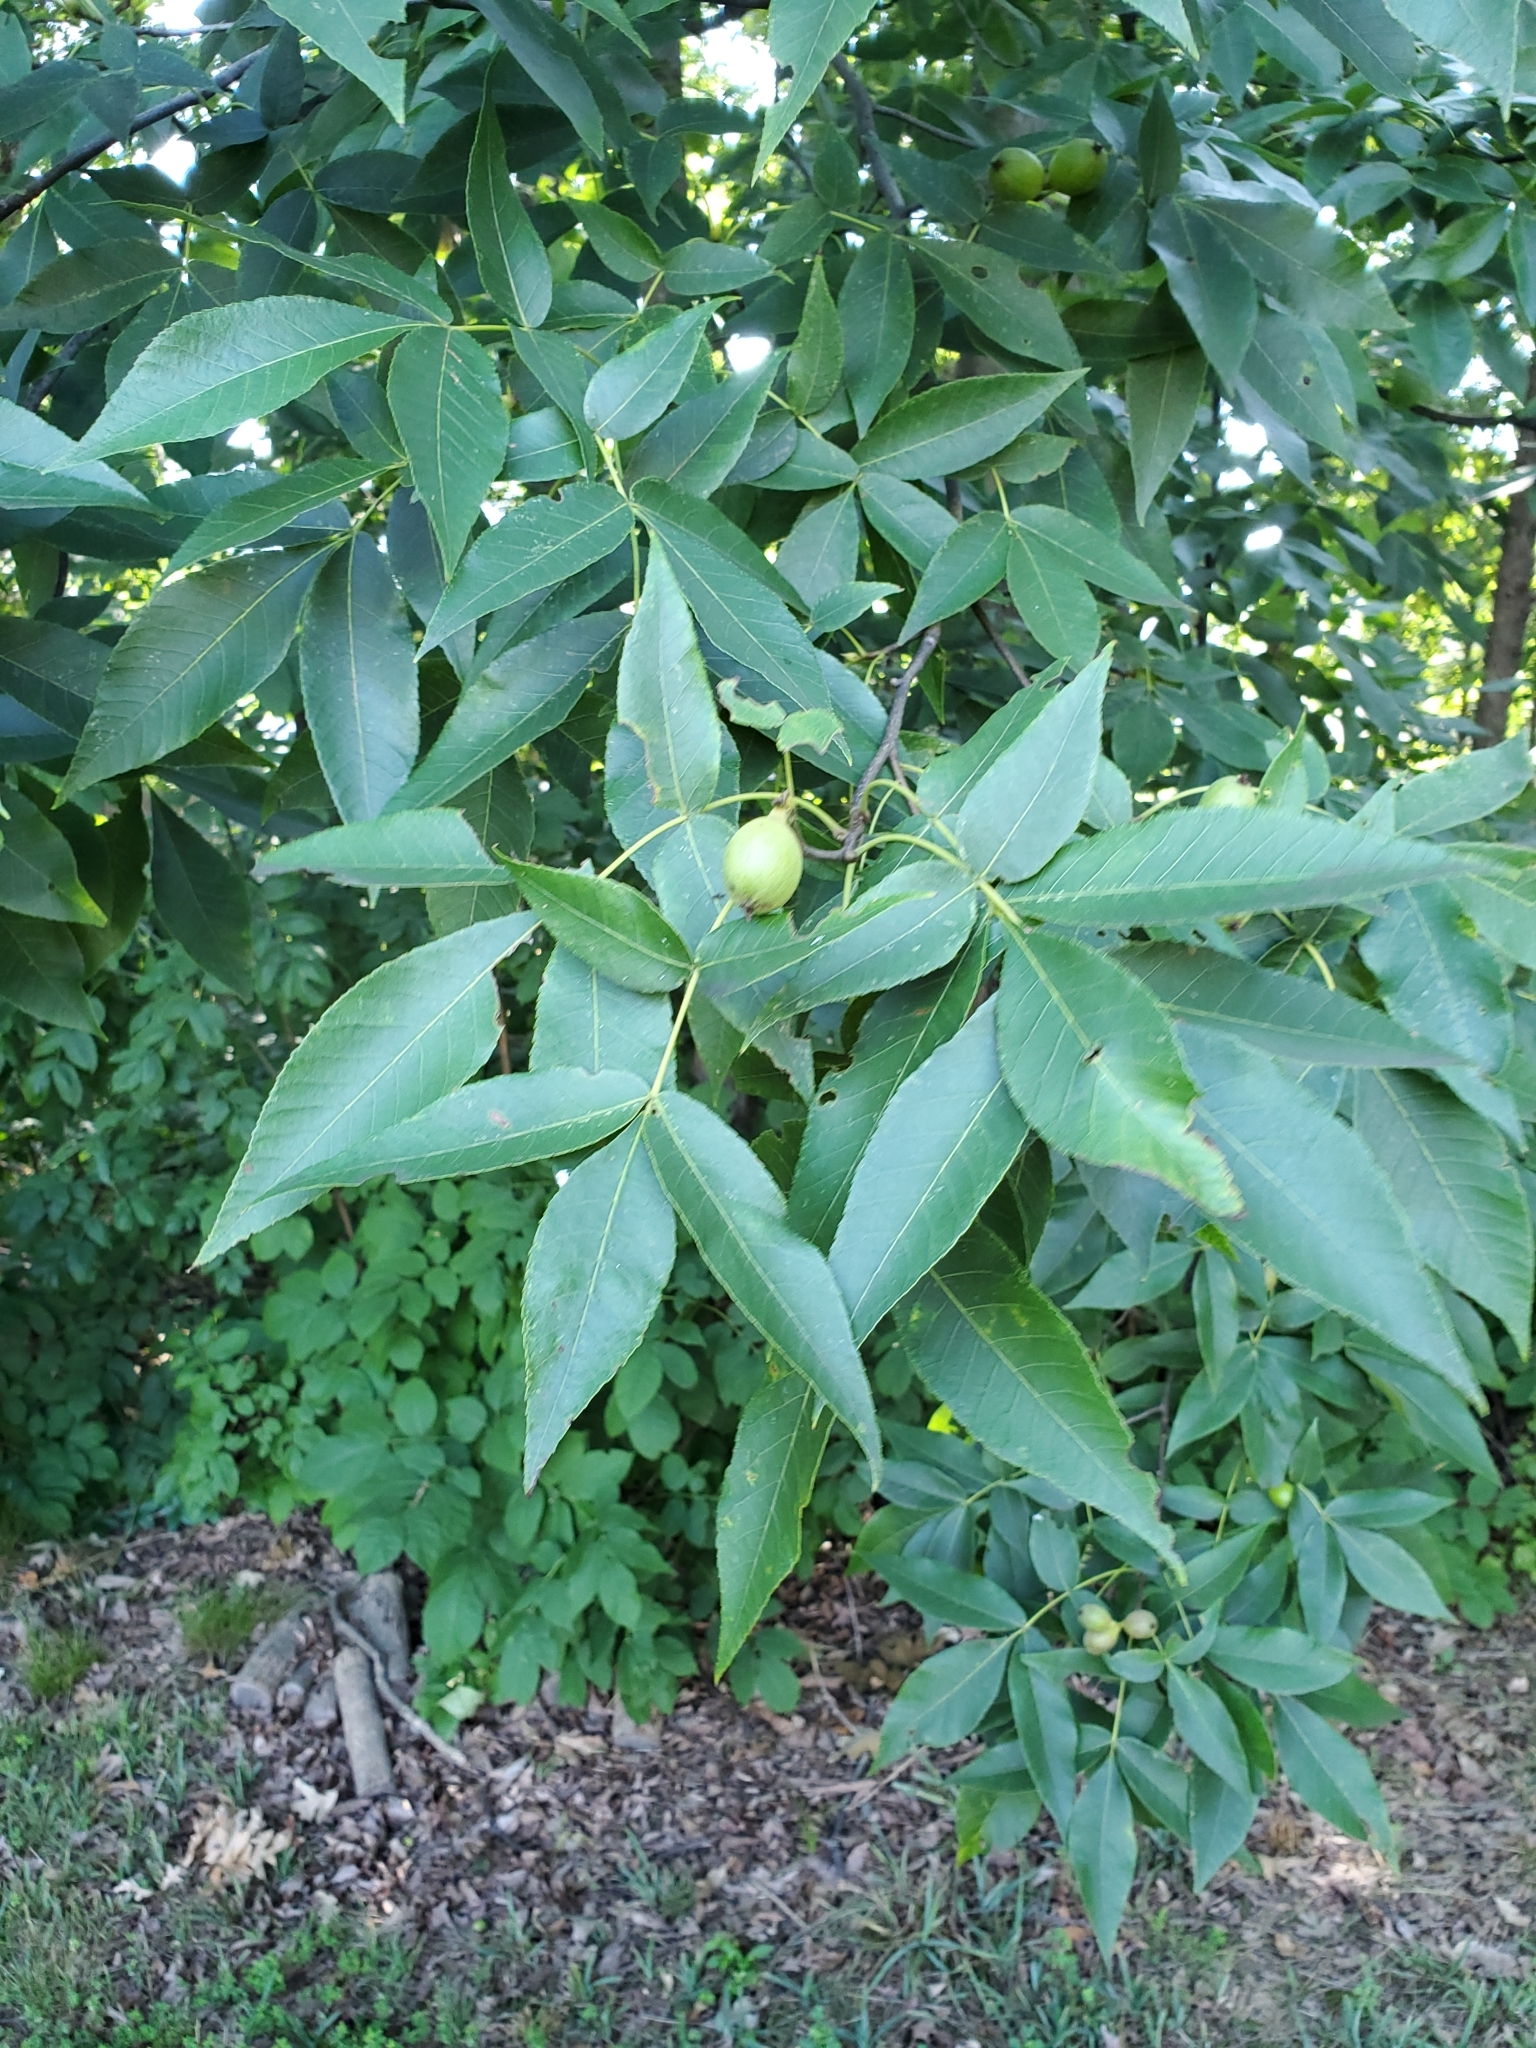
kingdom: Plantae
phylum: Tracheophyta
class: Magnoliopsida
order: Fagales
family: Juglandaceae
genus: Carya
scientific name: Carya glabra
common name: Pignut hickory
